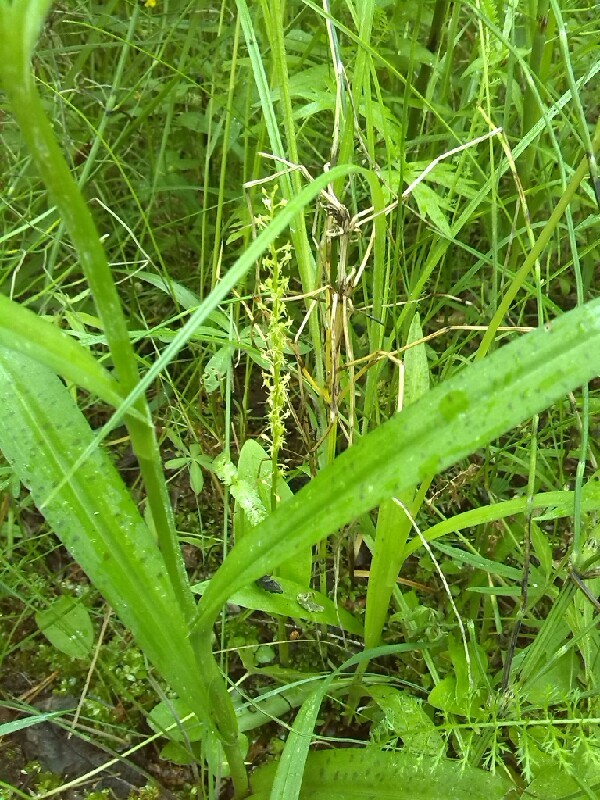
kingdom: Plantae
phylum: Tracheophyta
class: Liliopsida
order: Asparagales
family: Orchidaceae
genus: Malaxis
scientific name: Malaxis monophyllos
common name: White adder's-mouth
